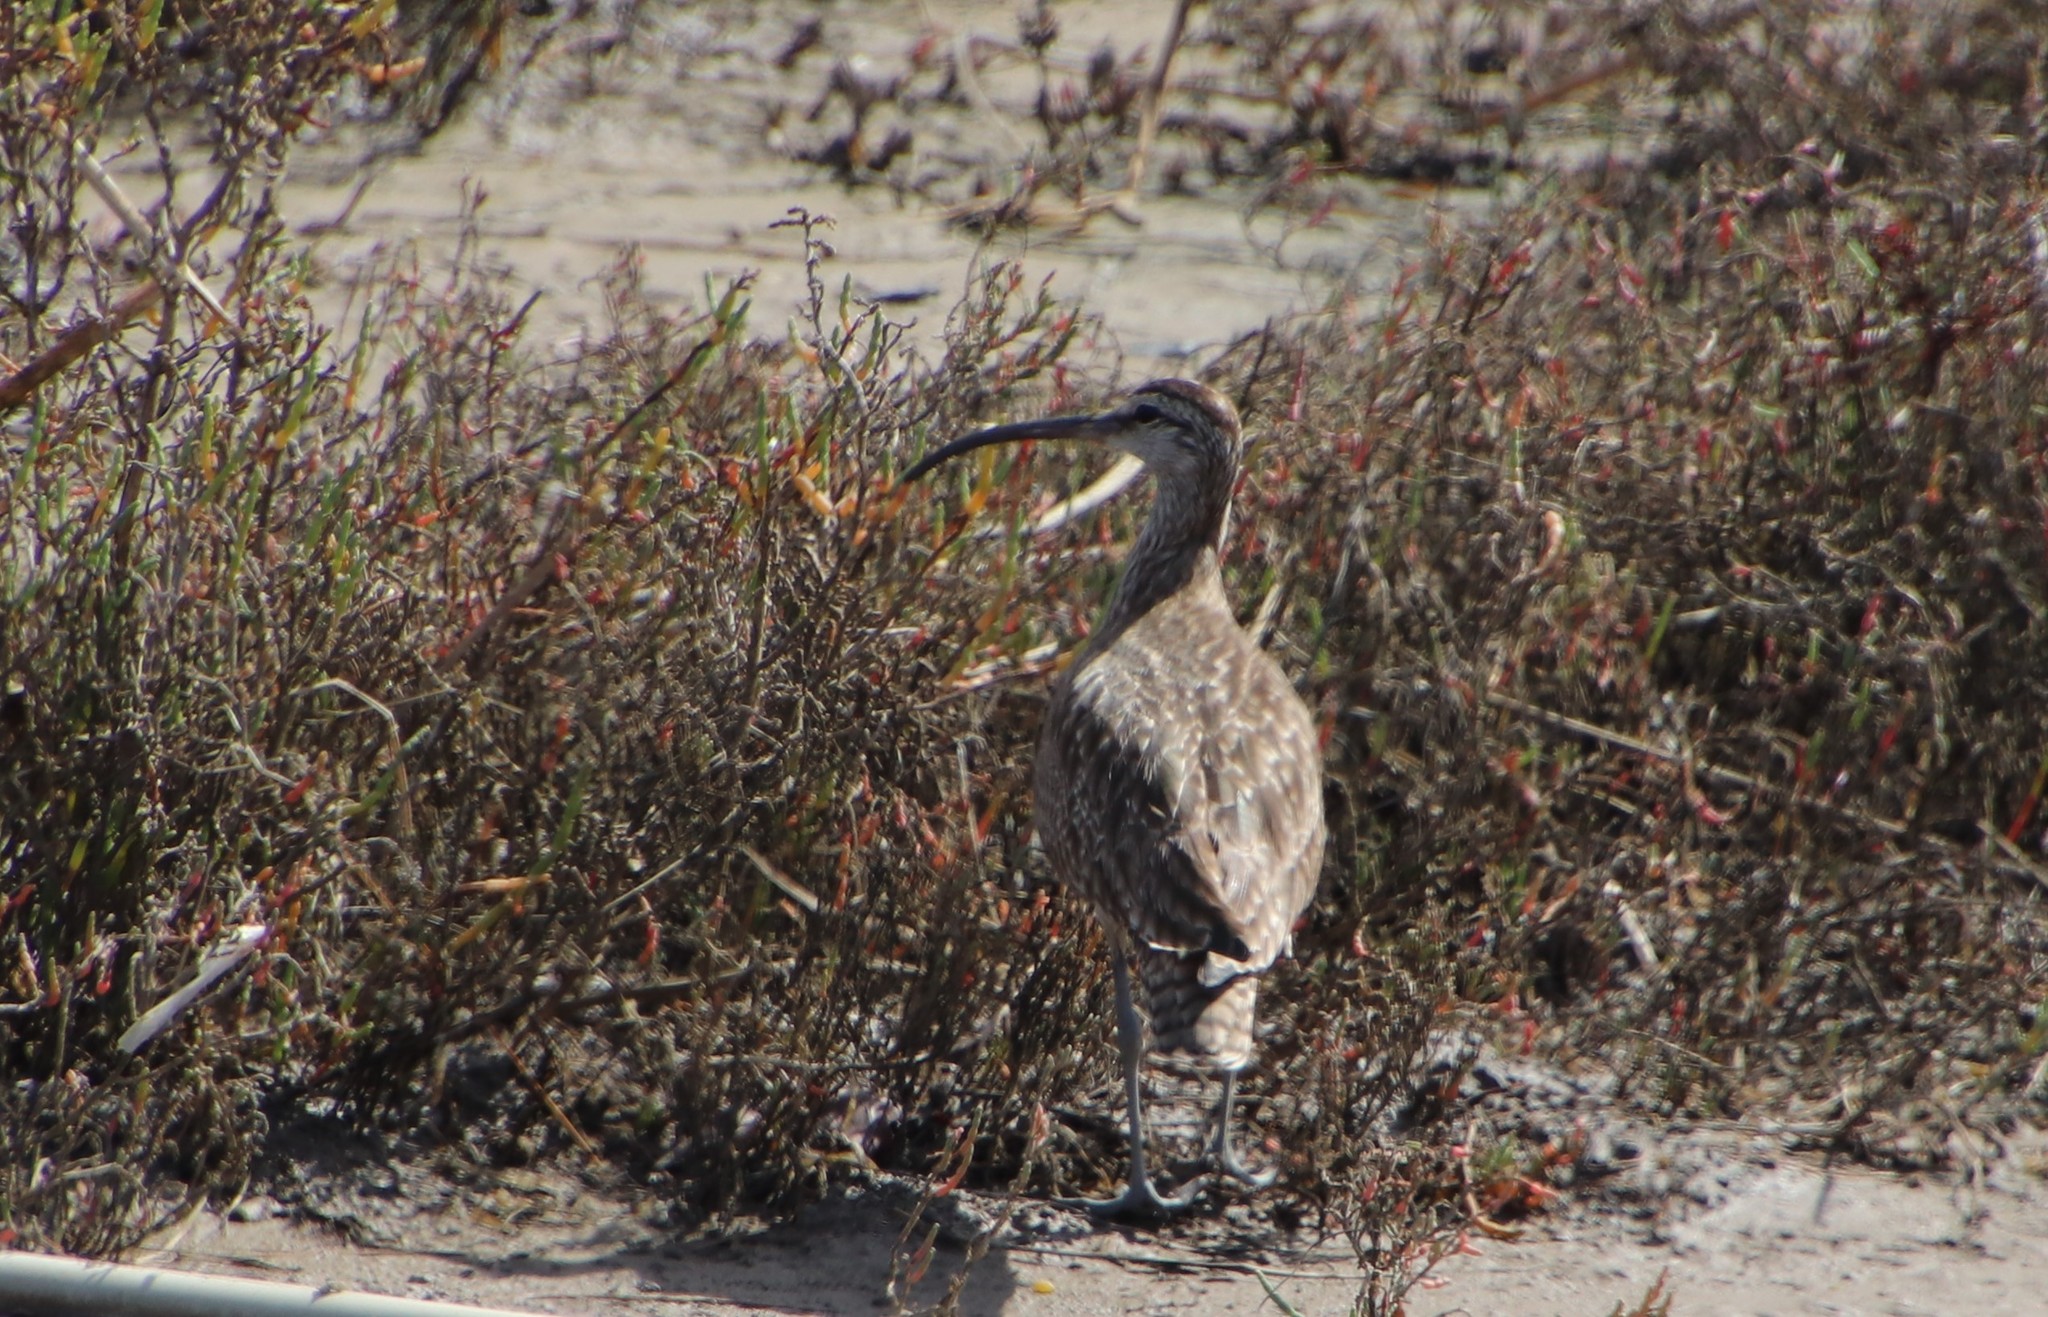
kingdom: Animalia
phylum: Chordata
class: Aves
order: Charadriiformes
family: Scolopacidae
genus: Numenius
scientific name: Numenius phaeopus
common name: Whimbrel
